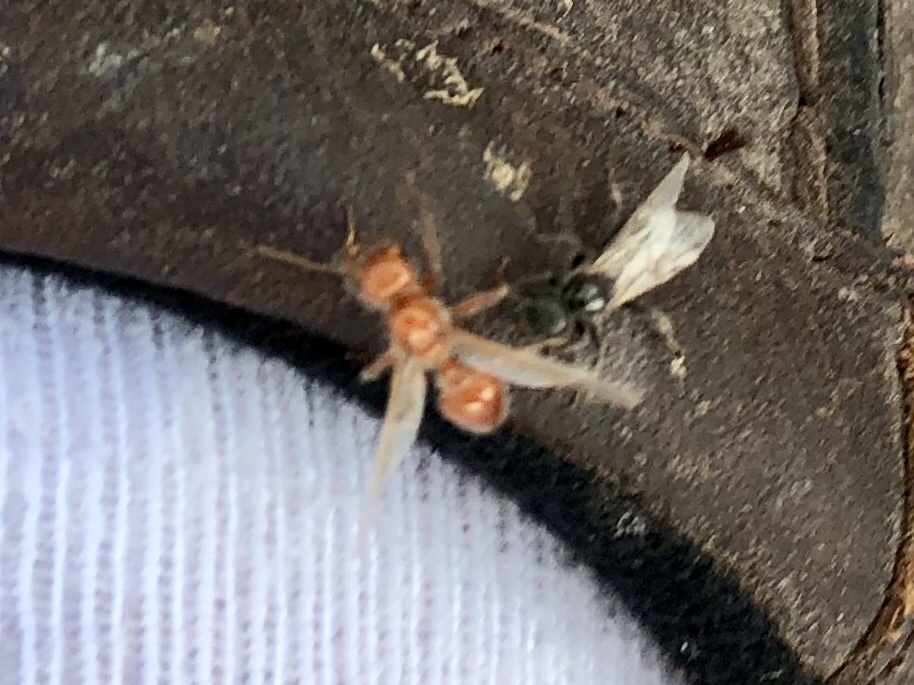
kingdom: Animalia
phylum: Arthropoda
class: Insecta
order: Hymenoptera
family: Formicidae
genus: Pogonomyrmex
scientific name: Pogonomyrmex barbatus
